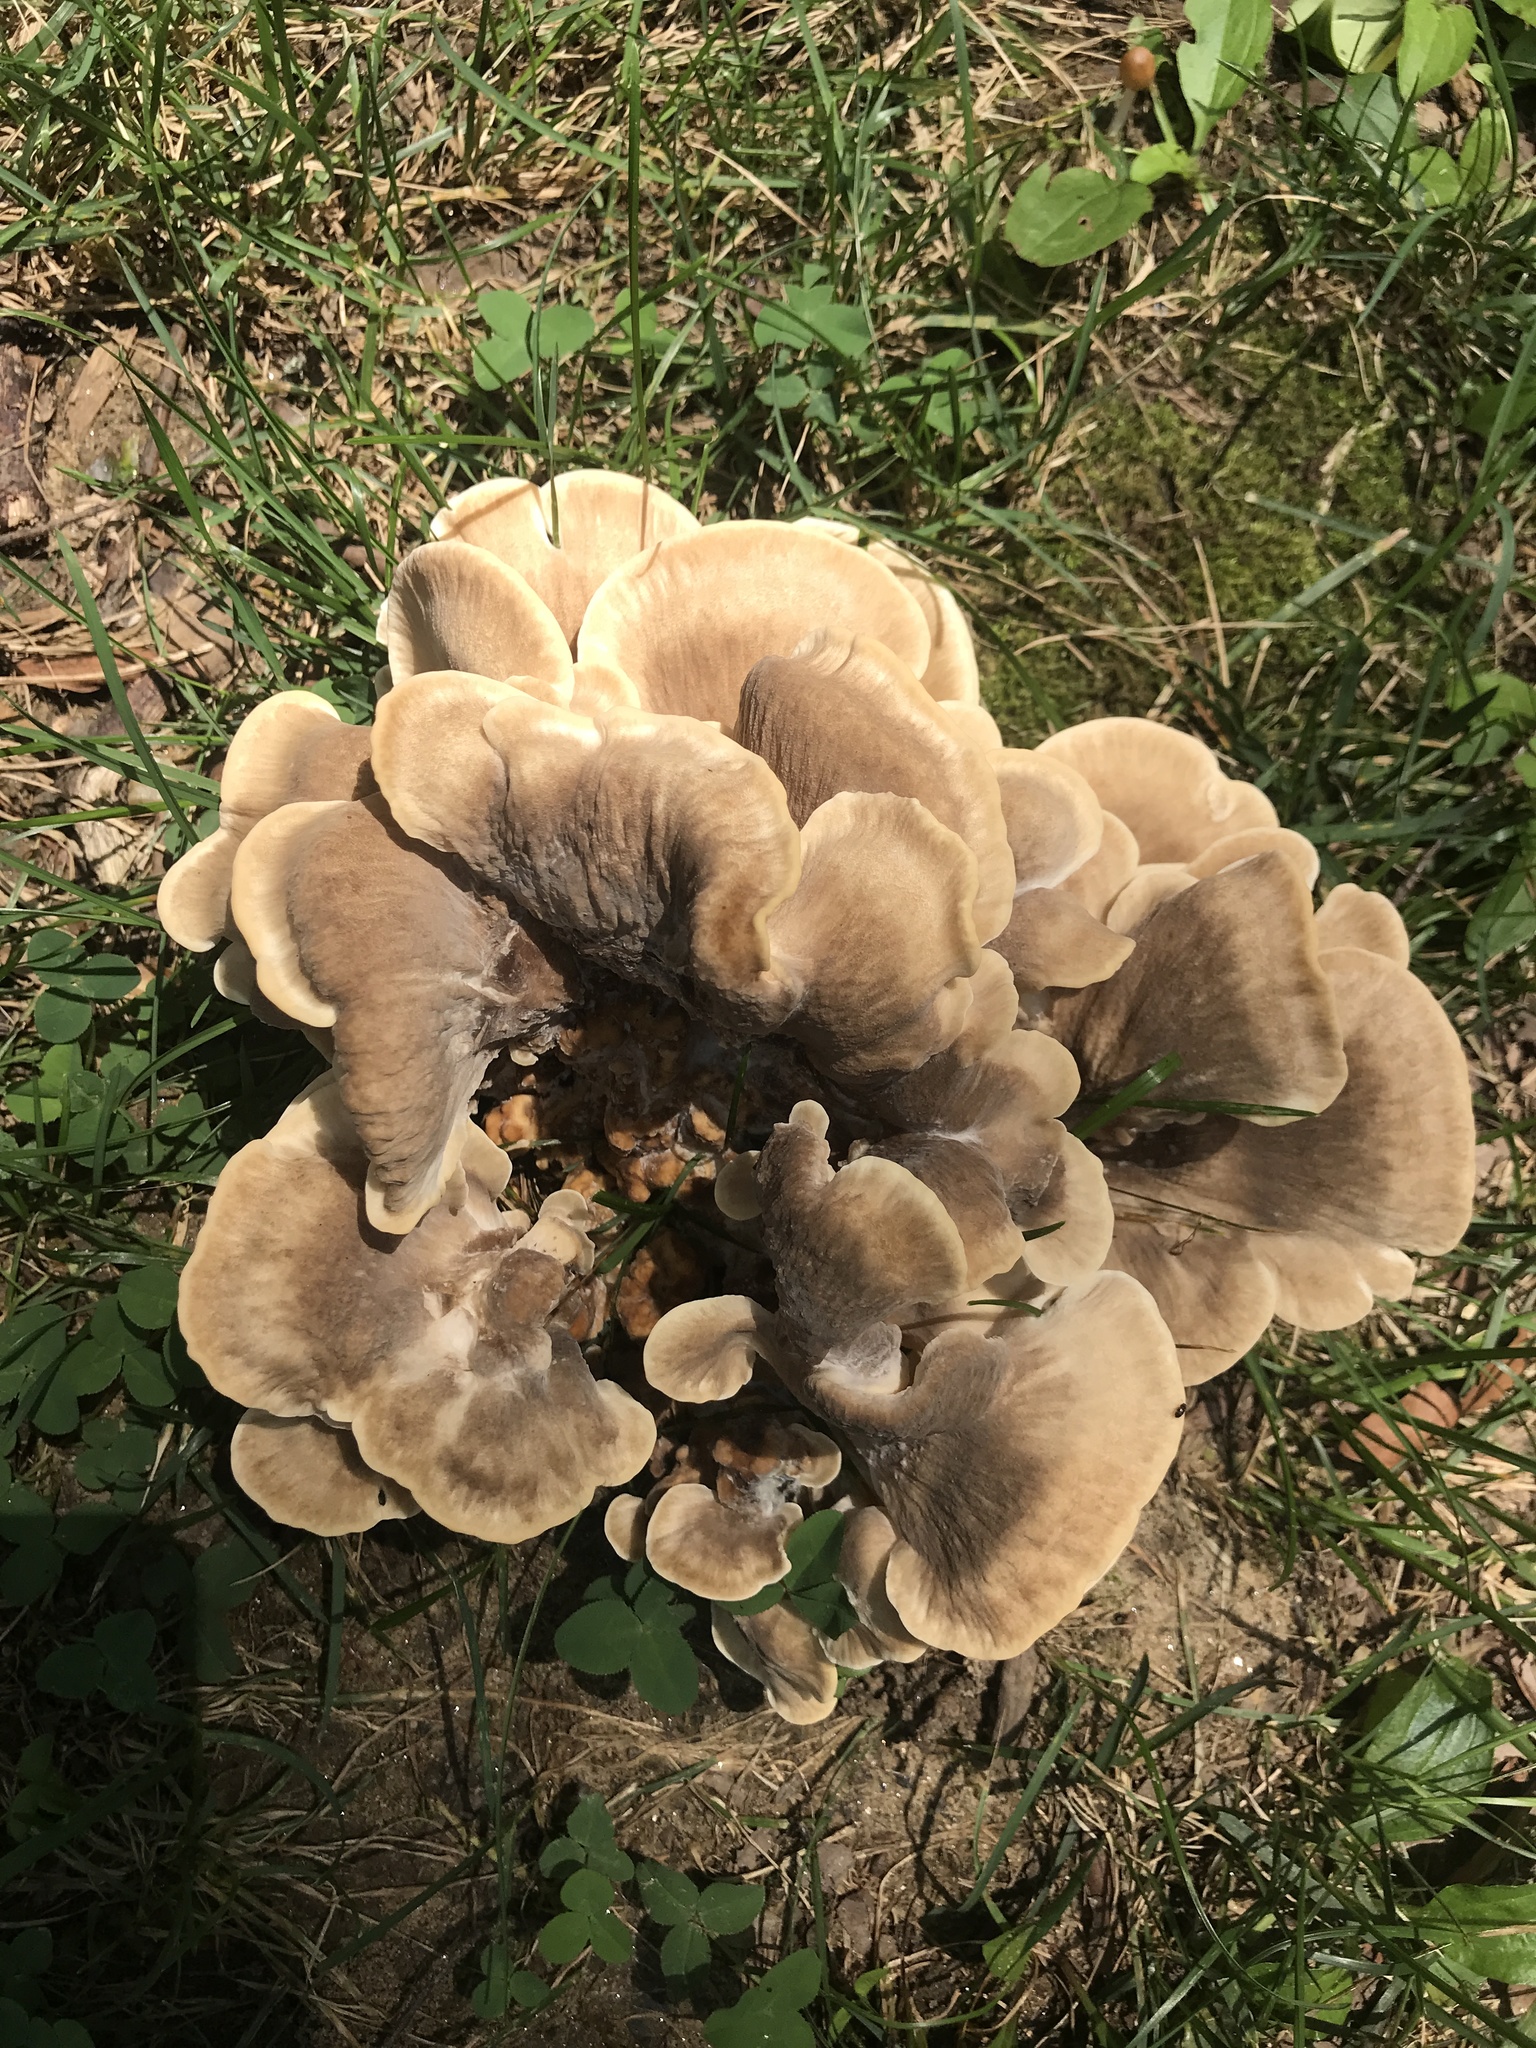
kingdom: Fungi
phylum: Basidiomycota
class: Agaricomycetes
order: Polyporales
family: Meripilaceae
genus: Meripilus
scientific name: Meripilus sumstinei
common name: Black-staining polypore
